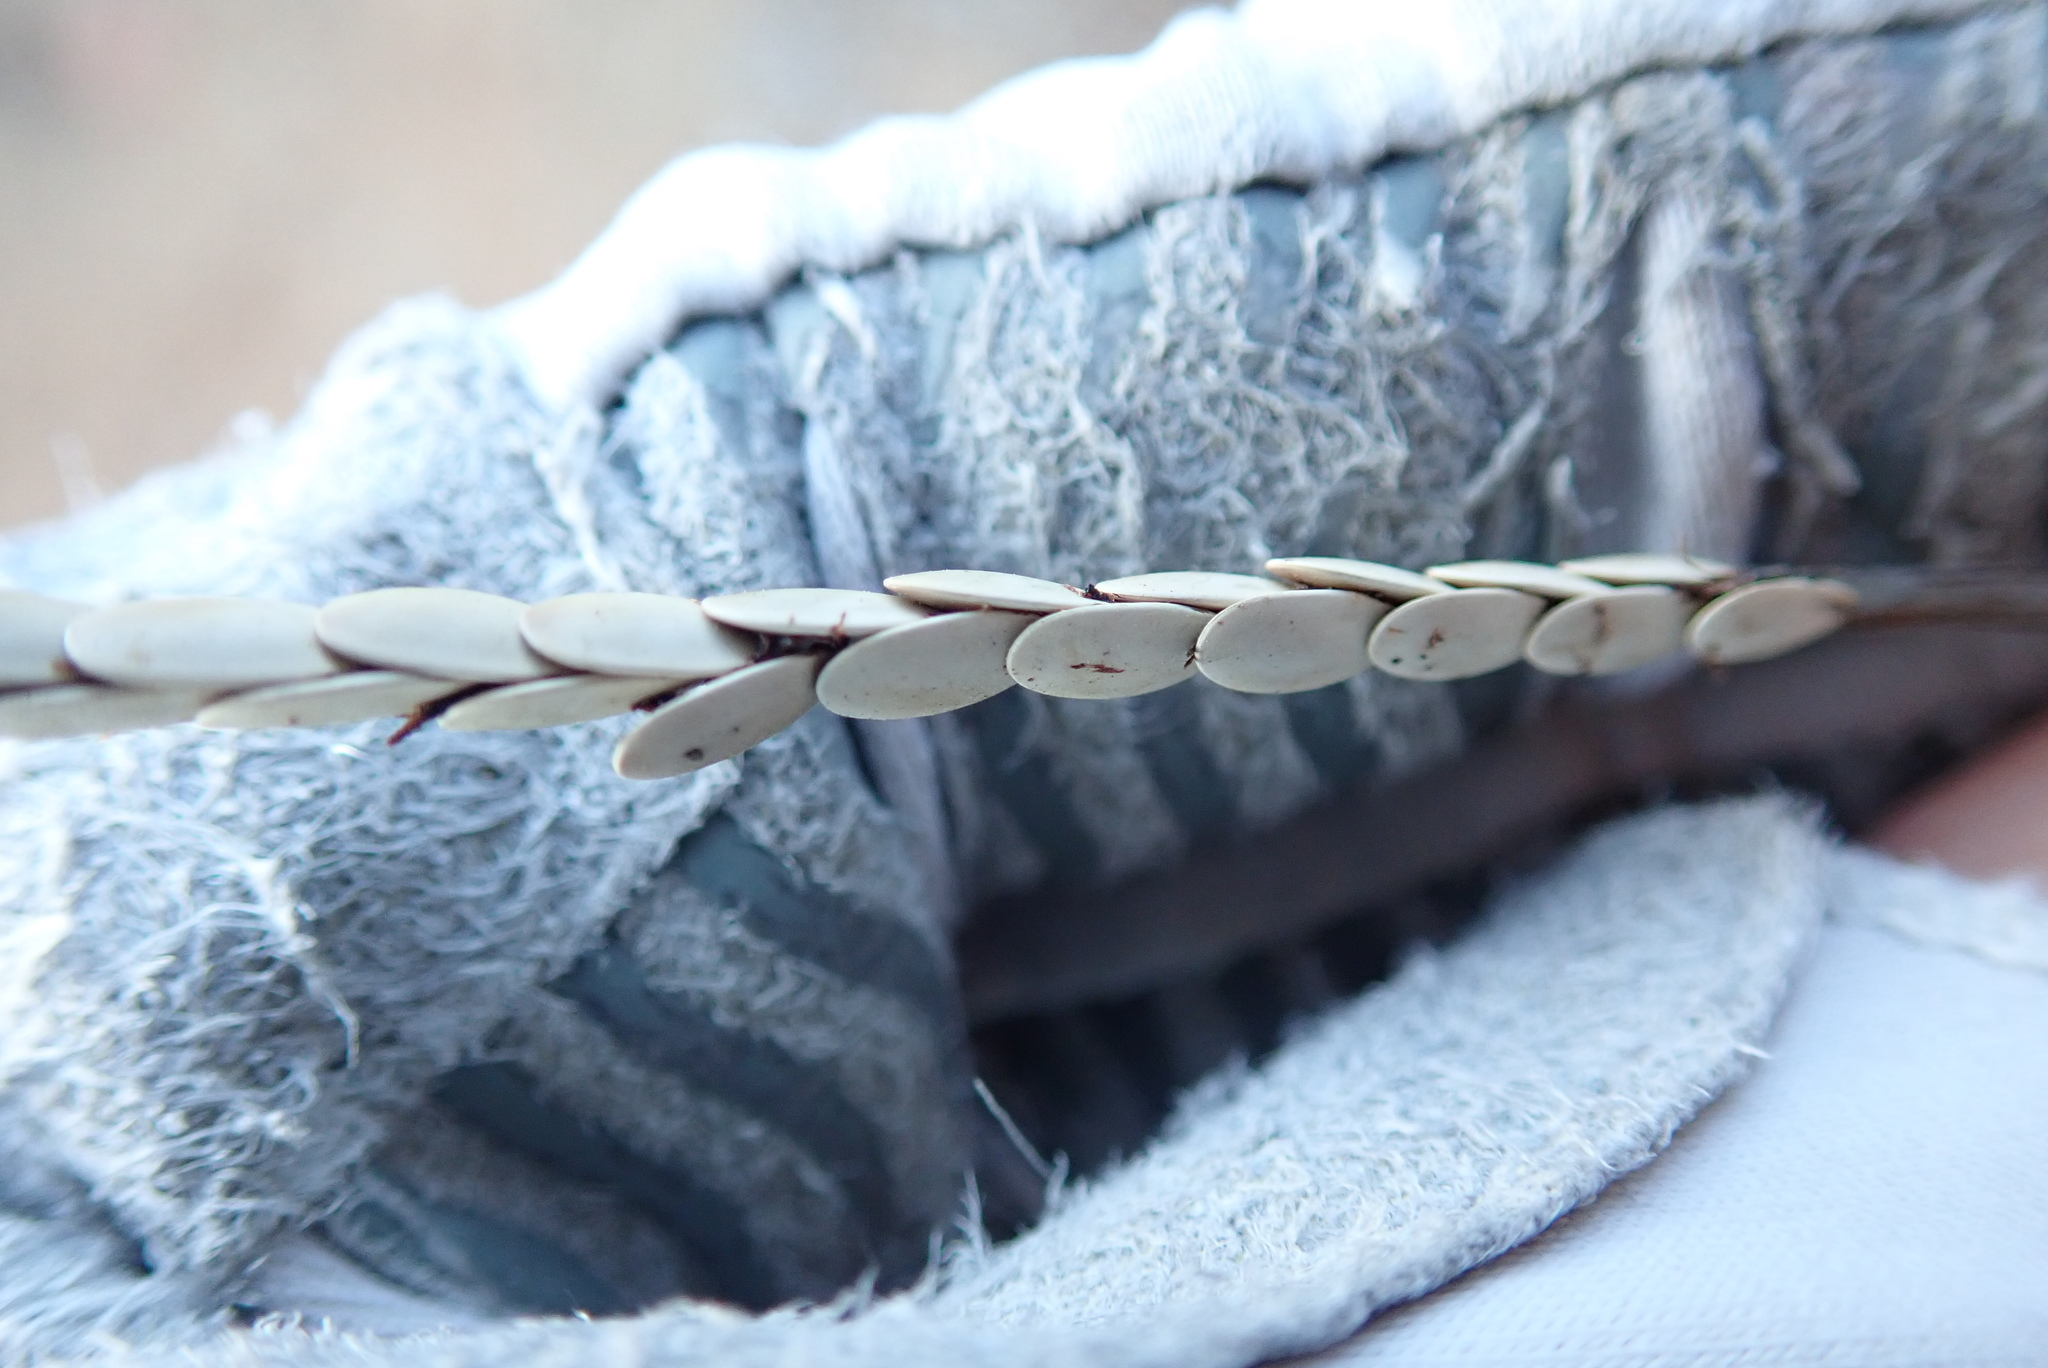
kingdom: Animalia
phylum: Arthropoda
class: Insecta
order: Orthoptera
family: Tettigoniidae
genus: Microcentrum
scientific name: Microcentrum
